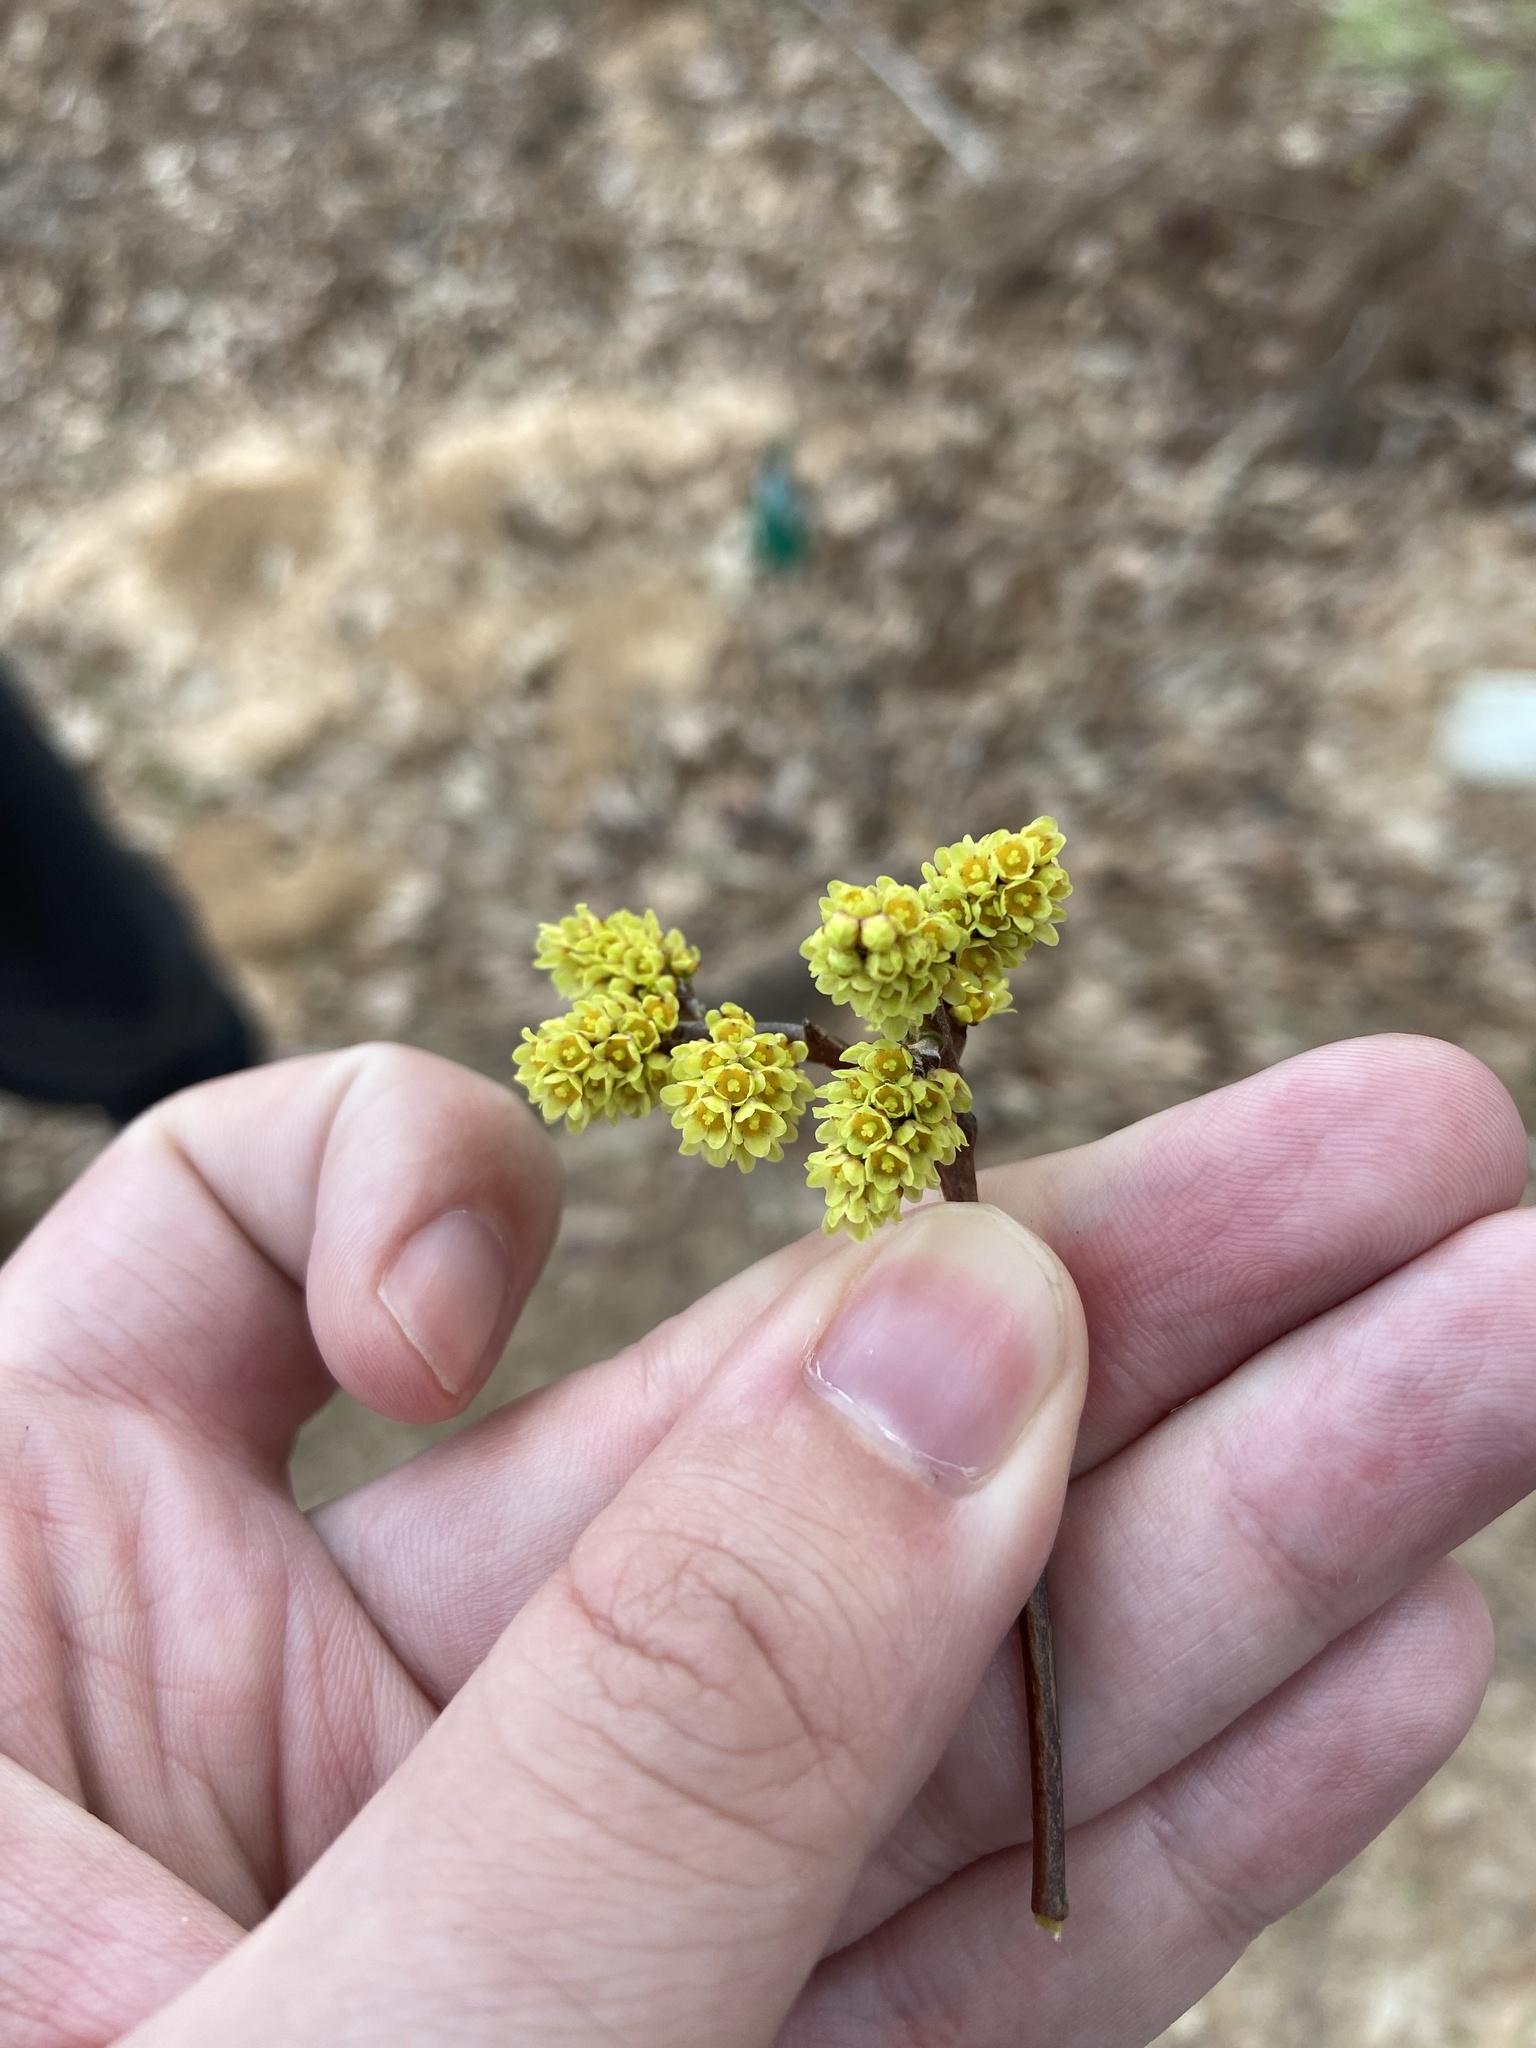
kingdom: Plantae
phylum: Tracheophyta
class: Magnoliopsida
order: Sapindales
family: Anacardiaceae
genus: Rhus
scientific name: Rhus aromatica
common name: Aromatic sumac
